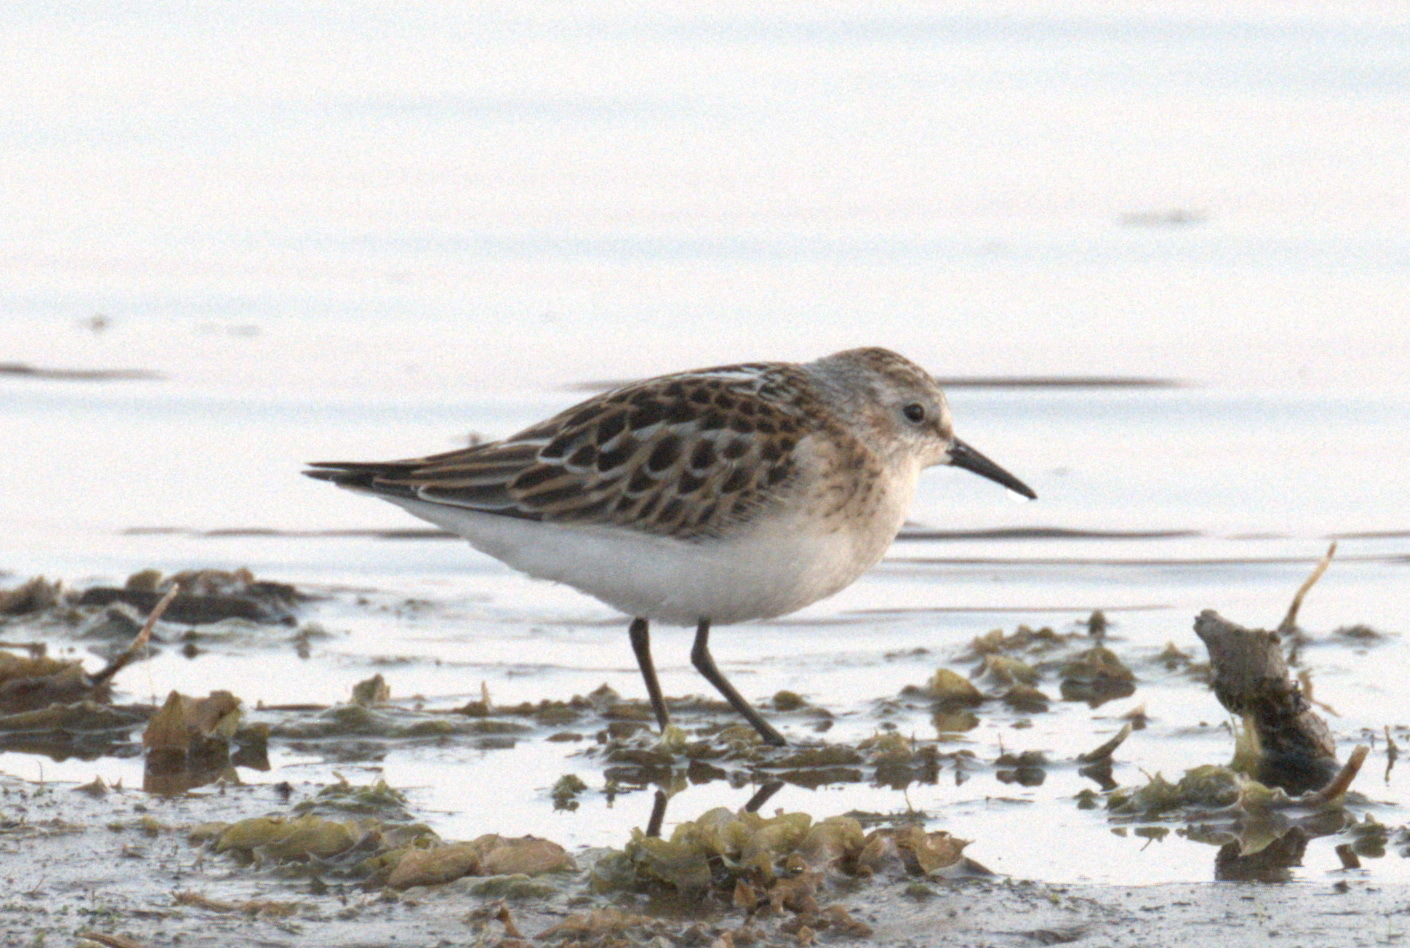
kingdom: Animalia
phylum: Chordata
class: Aves
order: Charadriiformes
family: Scolopacidae
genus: Calidris
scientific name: Calidris minuta
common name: Little stint
